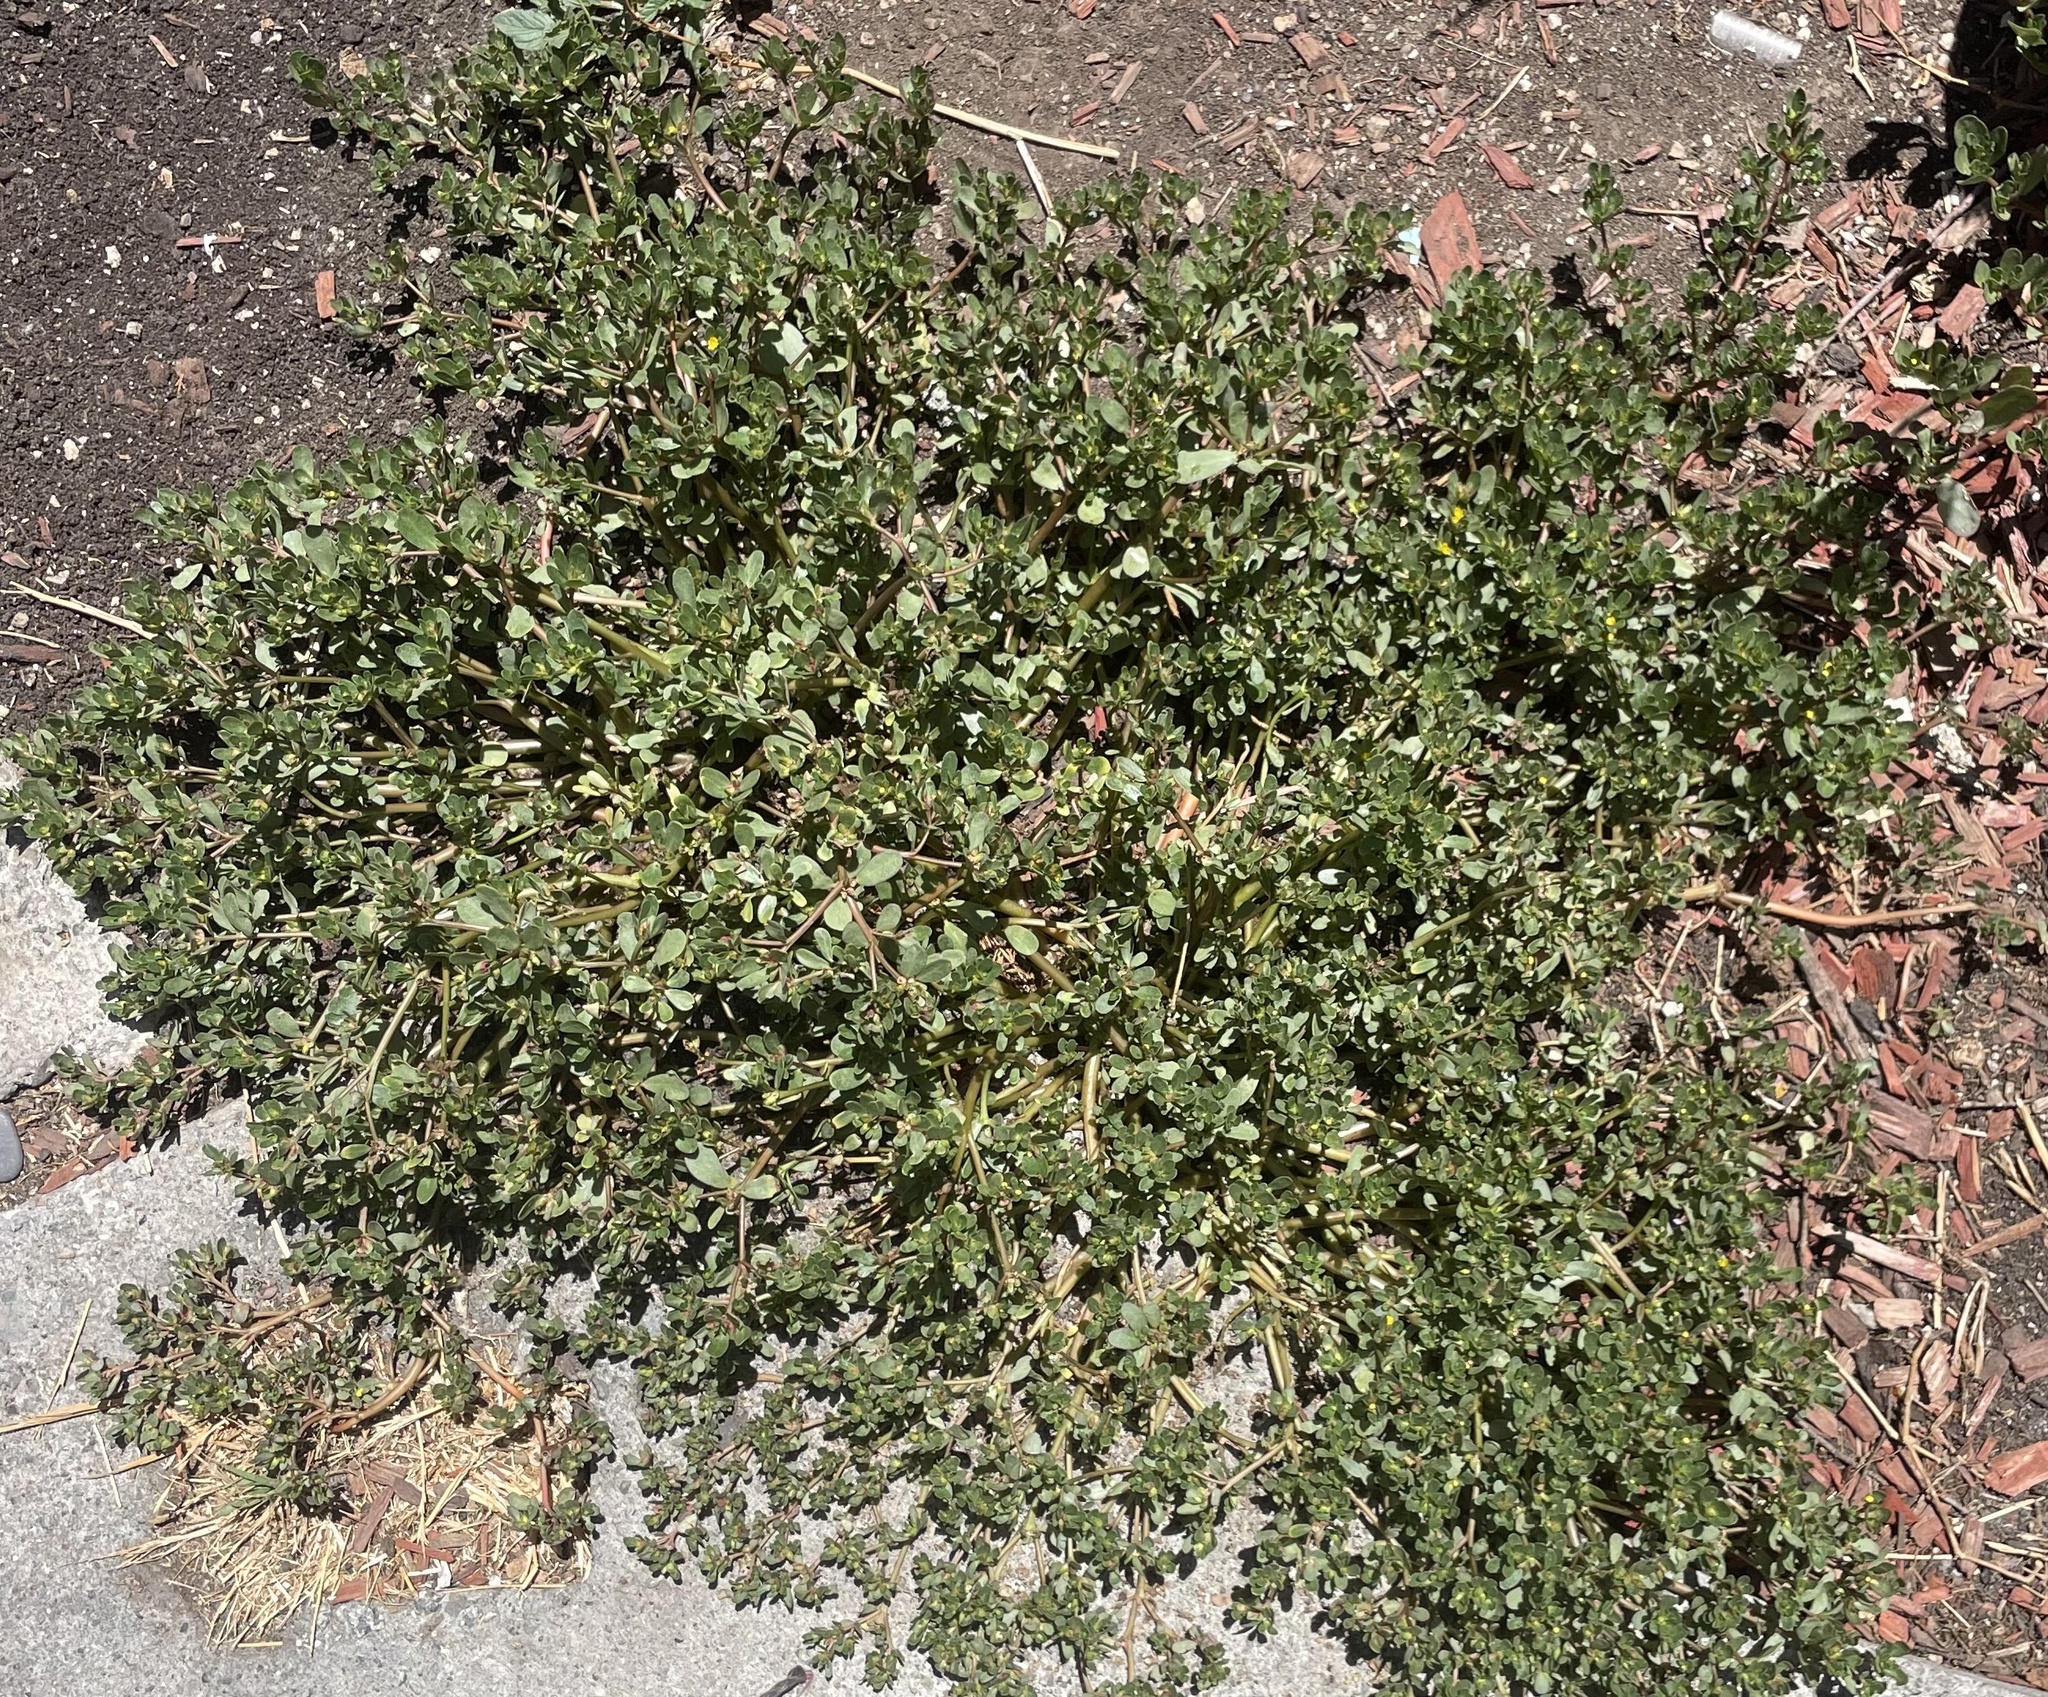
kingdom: Plantae
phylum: Tracheophyta
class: Magnoliopsida
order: Caryophyllales
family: Portulacaceae
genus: Portulaca
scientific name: Portulaca oleracea
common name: Common purslane
